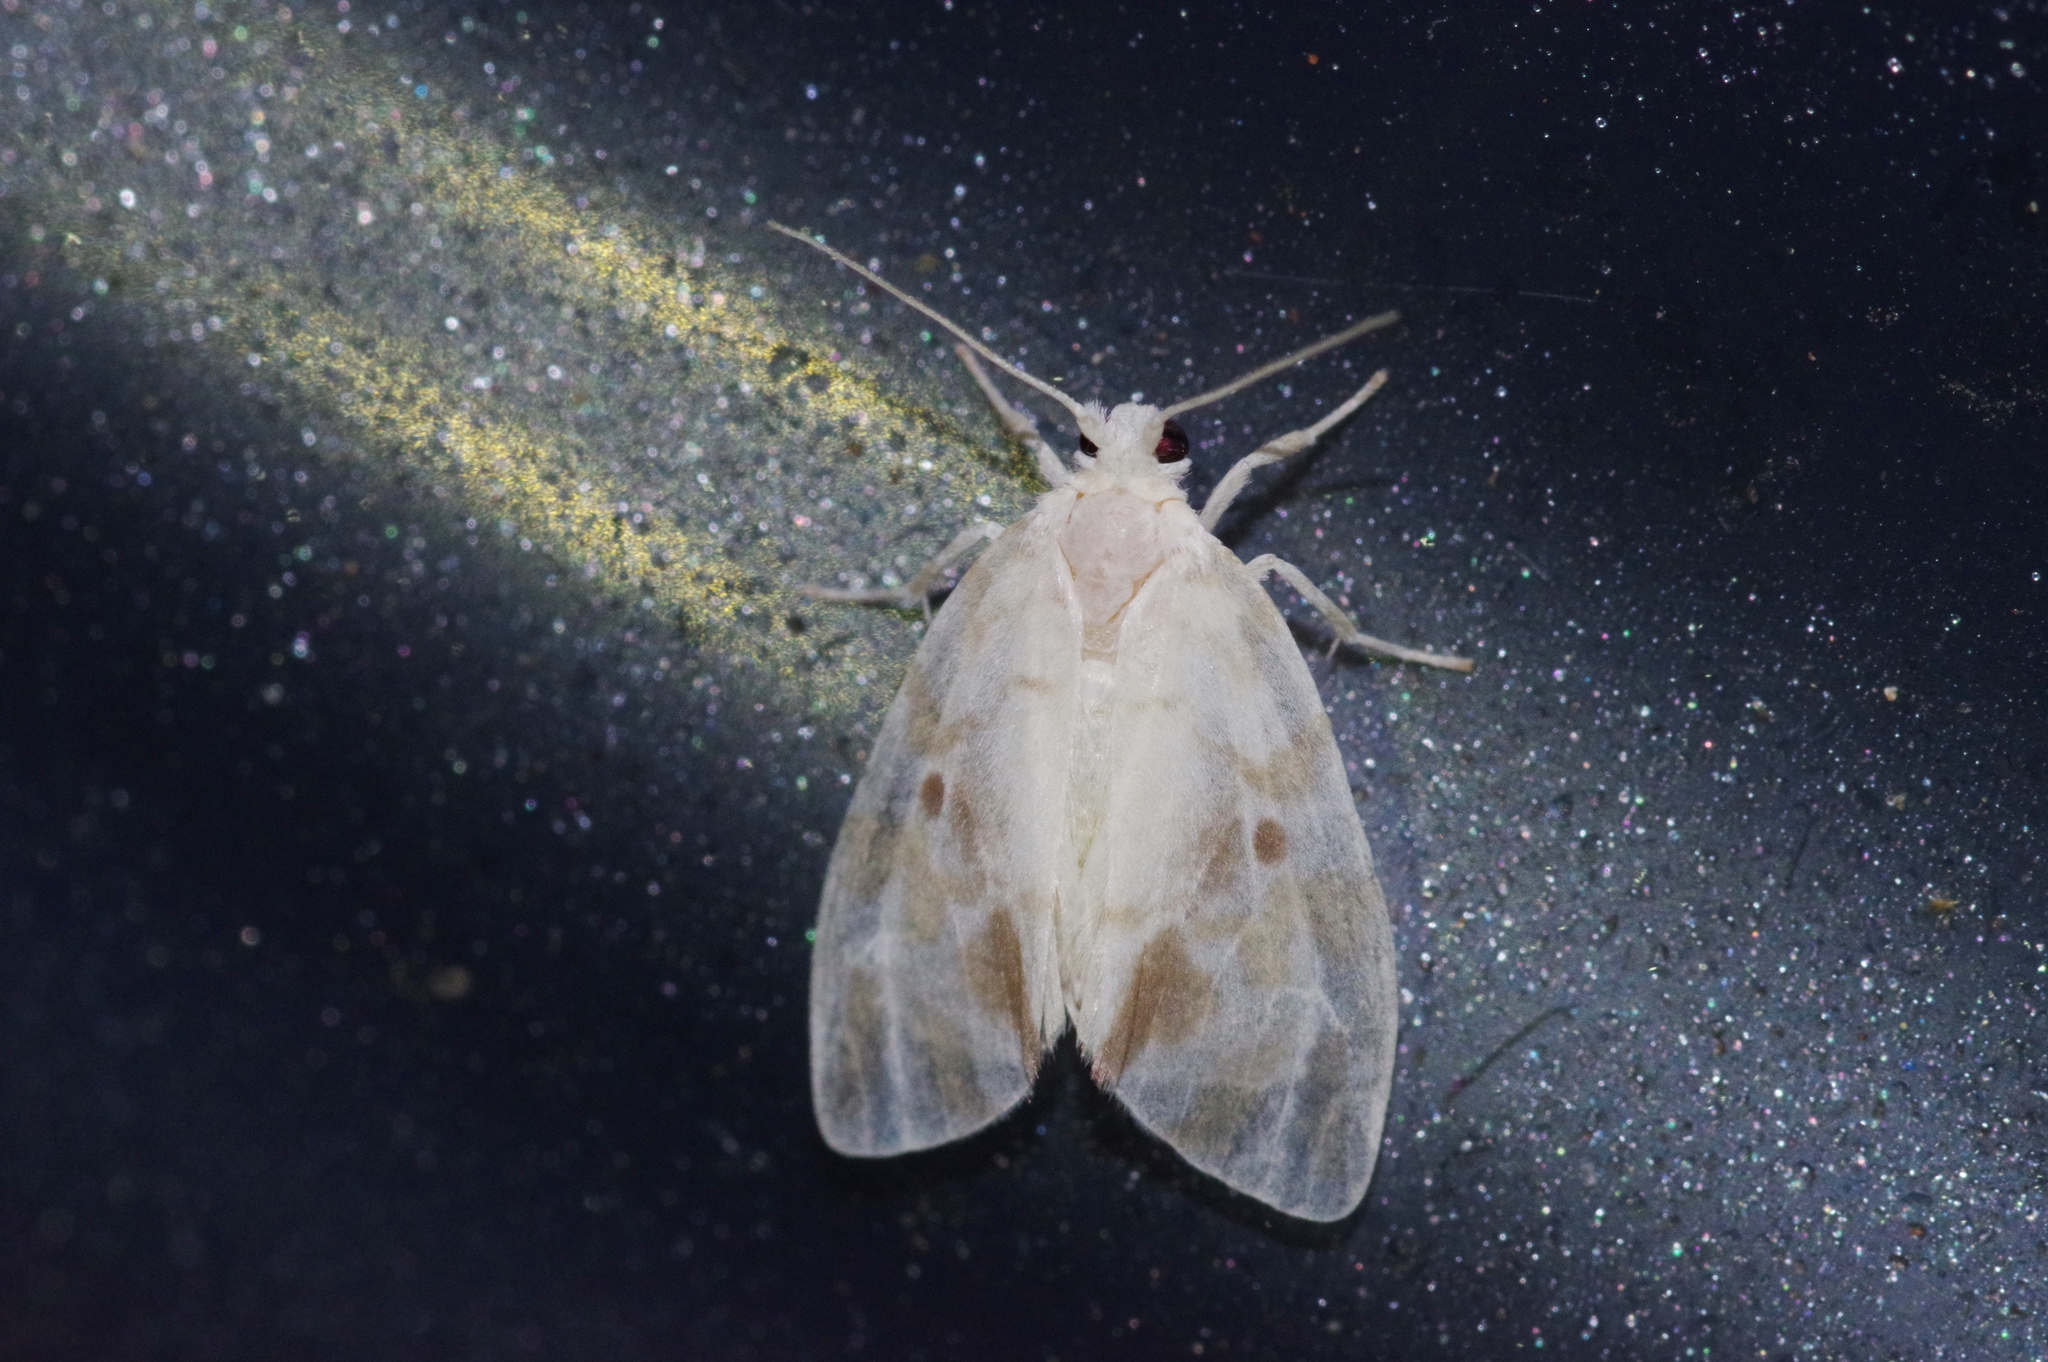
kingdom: Animalia
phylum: Arthropoda
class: Insecta
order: Lepidoptera
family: Erebidae
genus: Nudaria
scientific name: Nudaria ranruna
